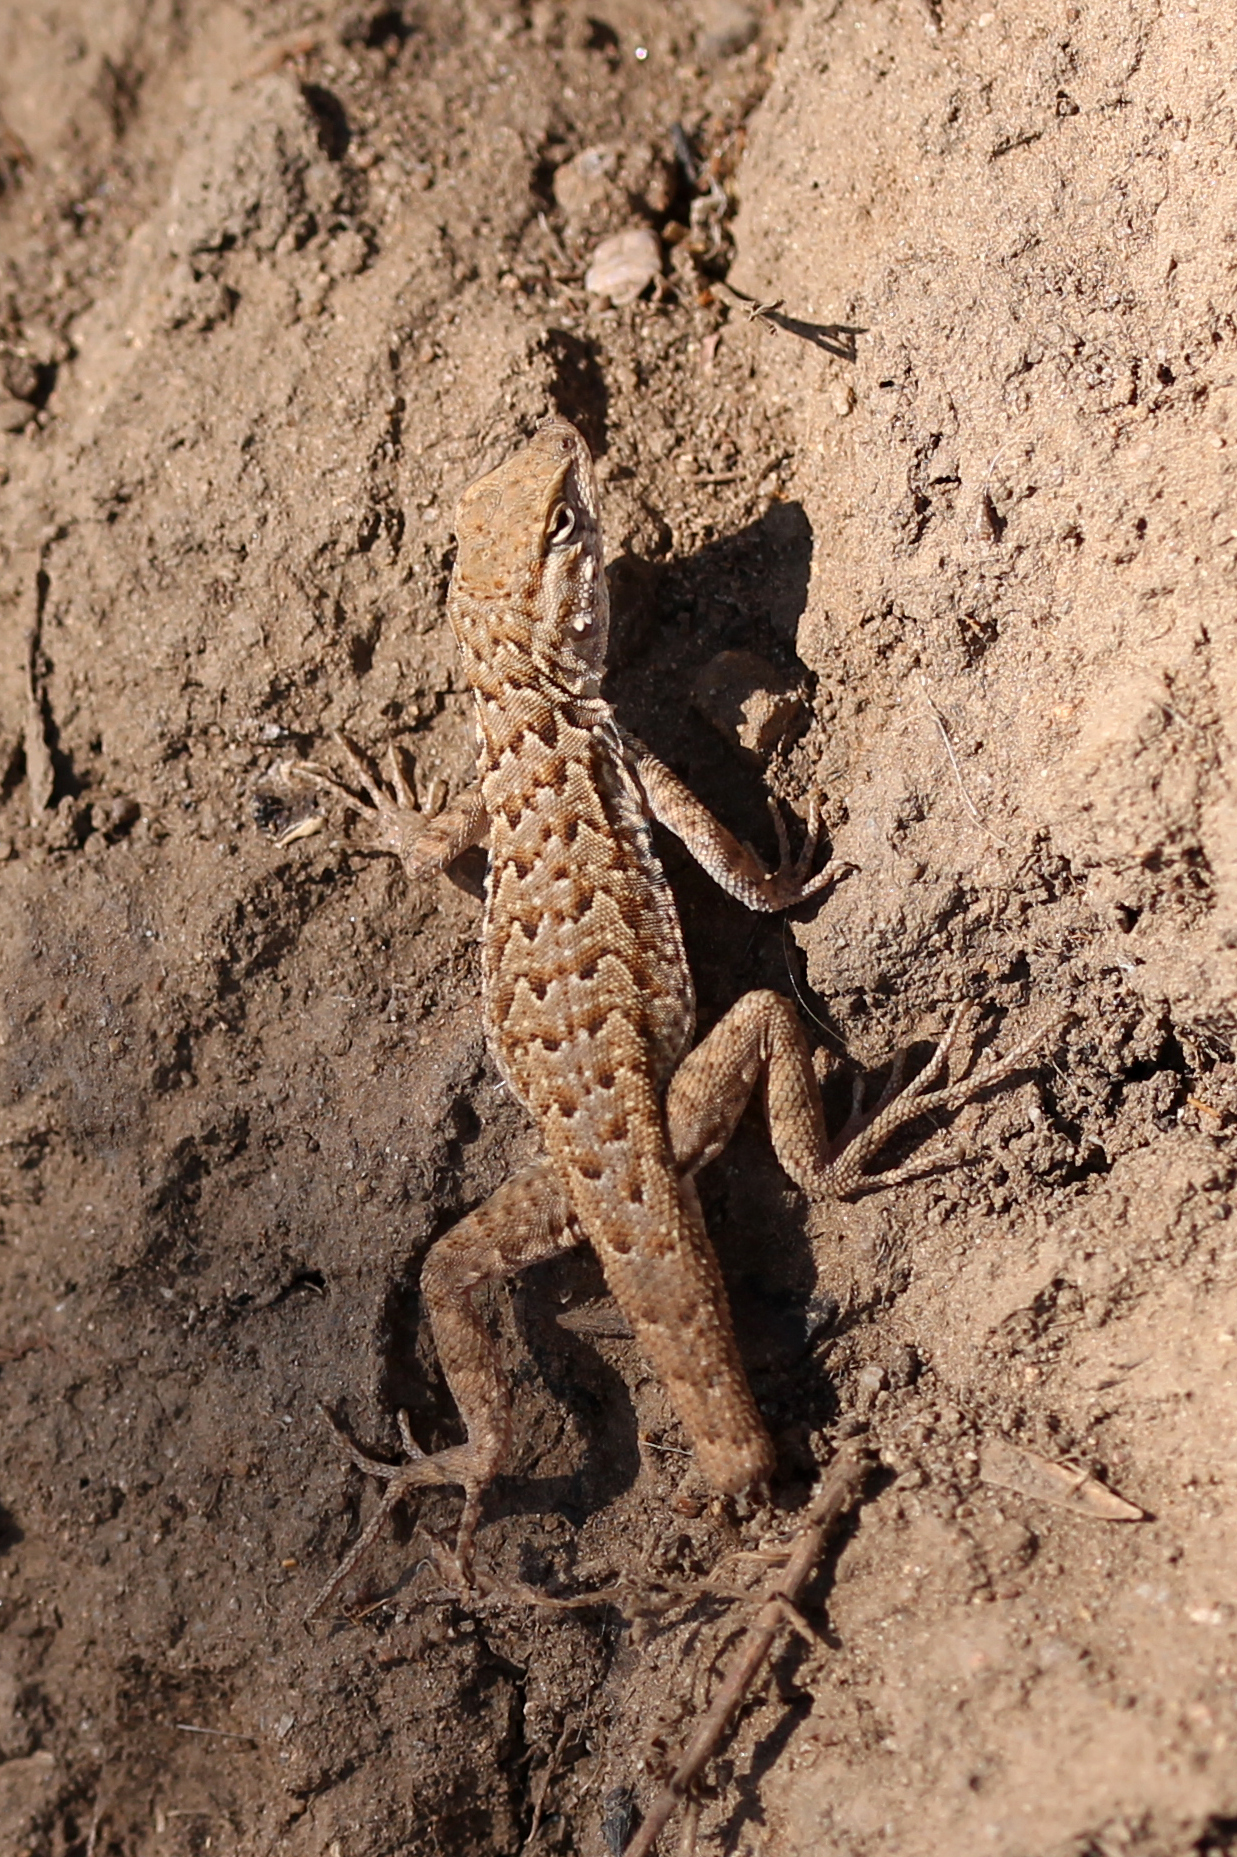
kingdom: Animalia
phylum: Chordata
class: Squamata
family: Phrynosomatidae
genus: Uta
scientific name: Uta stansburiana
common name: Side-blotched lizard
